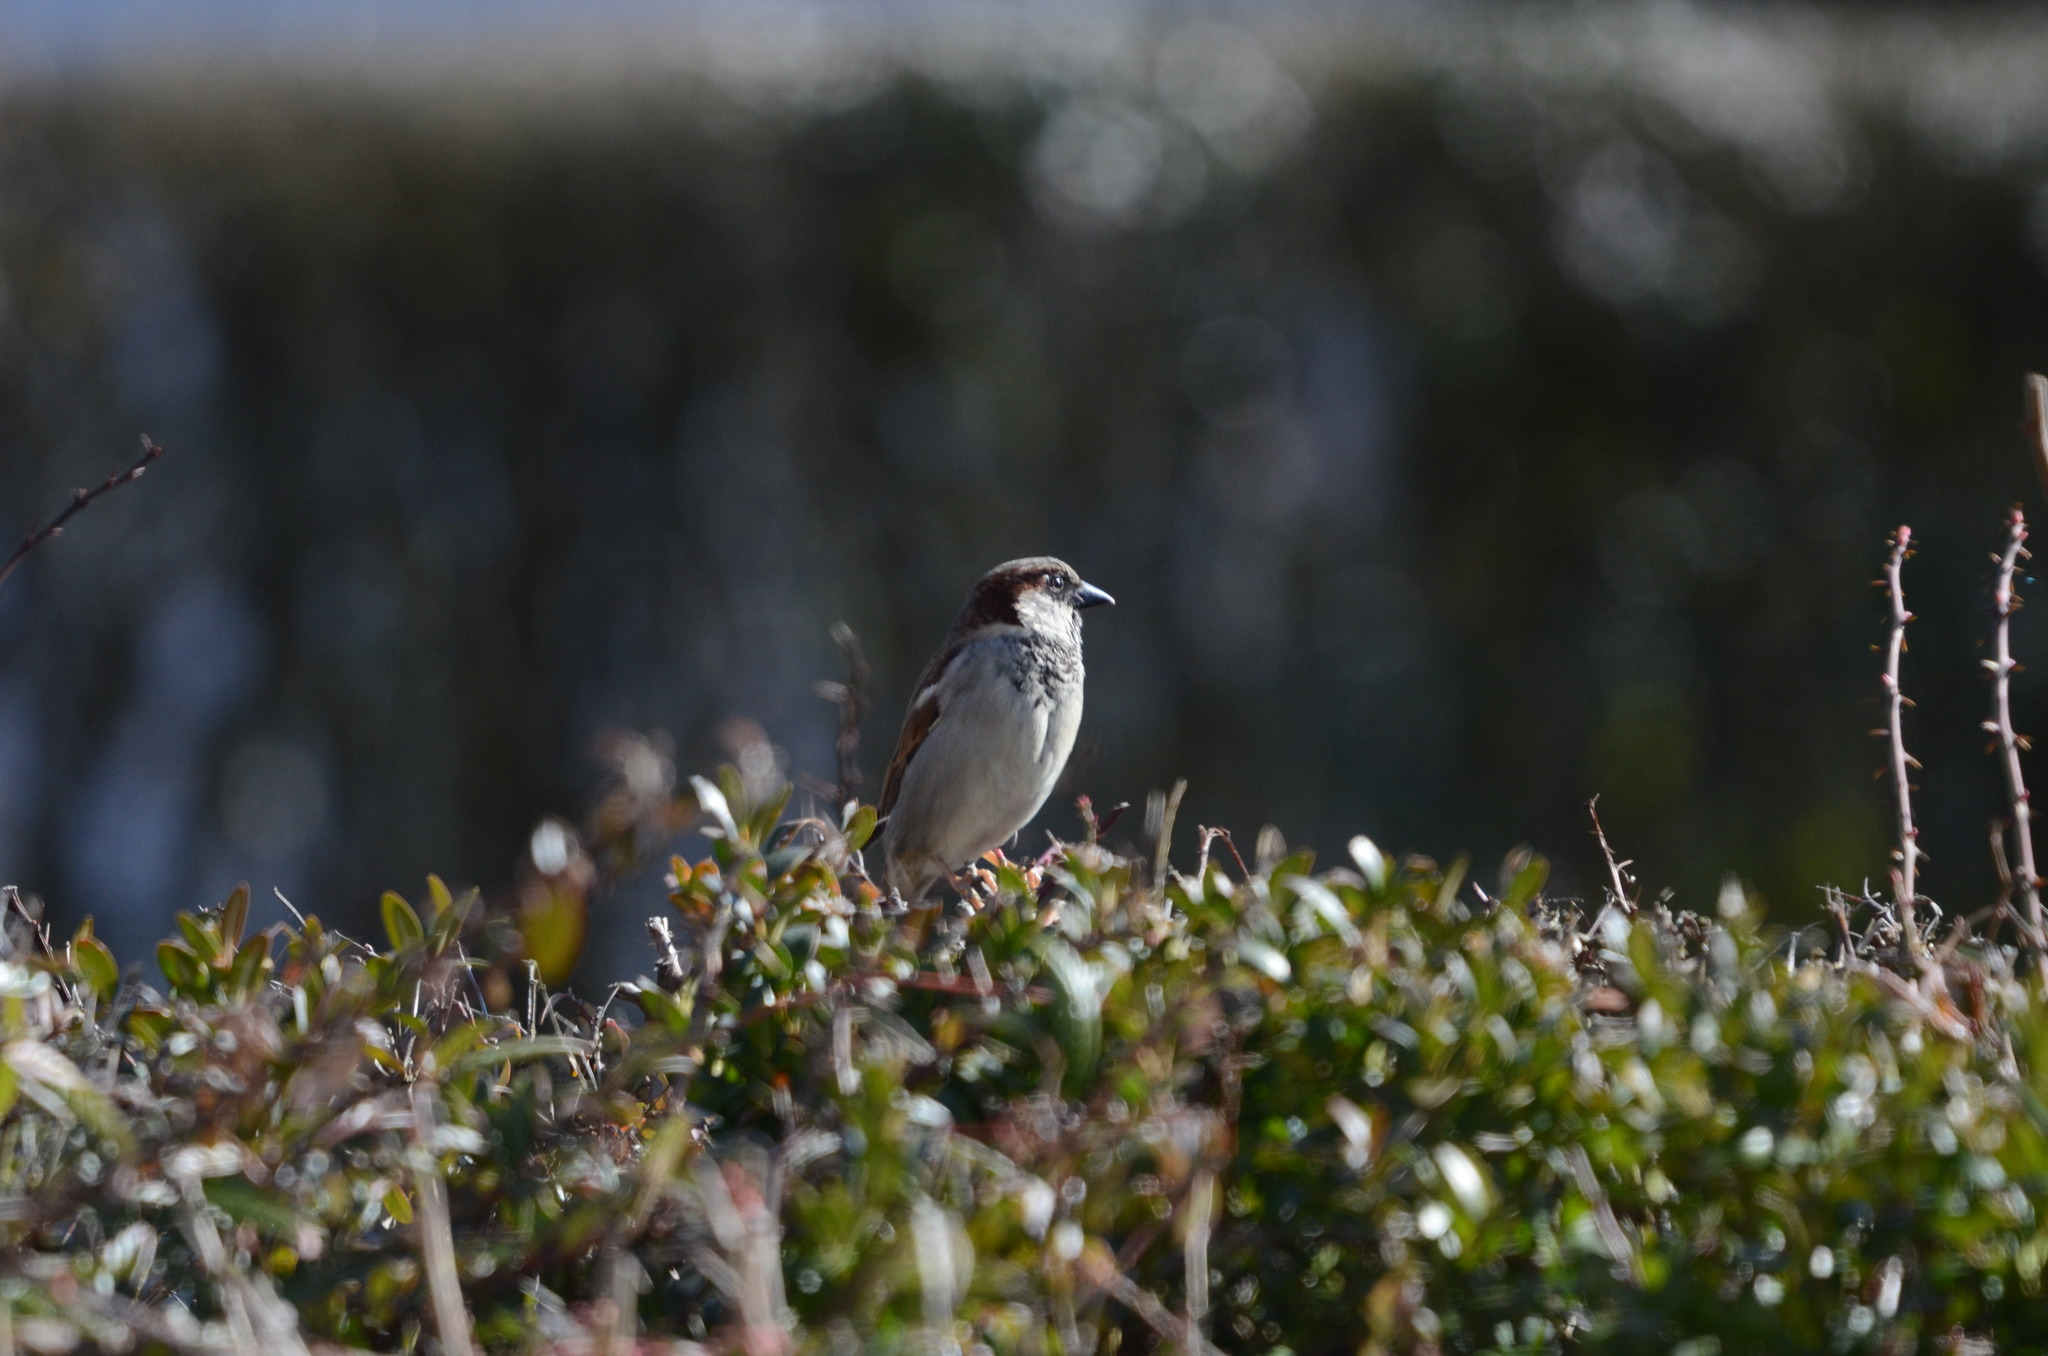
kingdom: Animalia
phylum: Chordata
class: Aves
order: Passeriformes
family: Passeridae
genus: Passer
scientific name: Passer domesticus
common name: House sparrow
